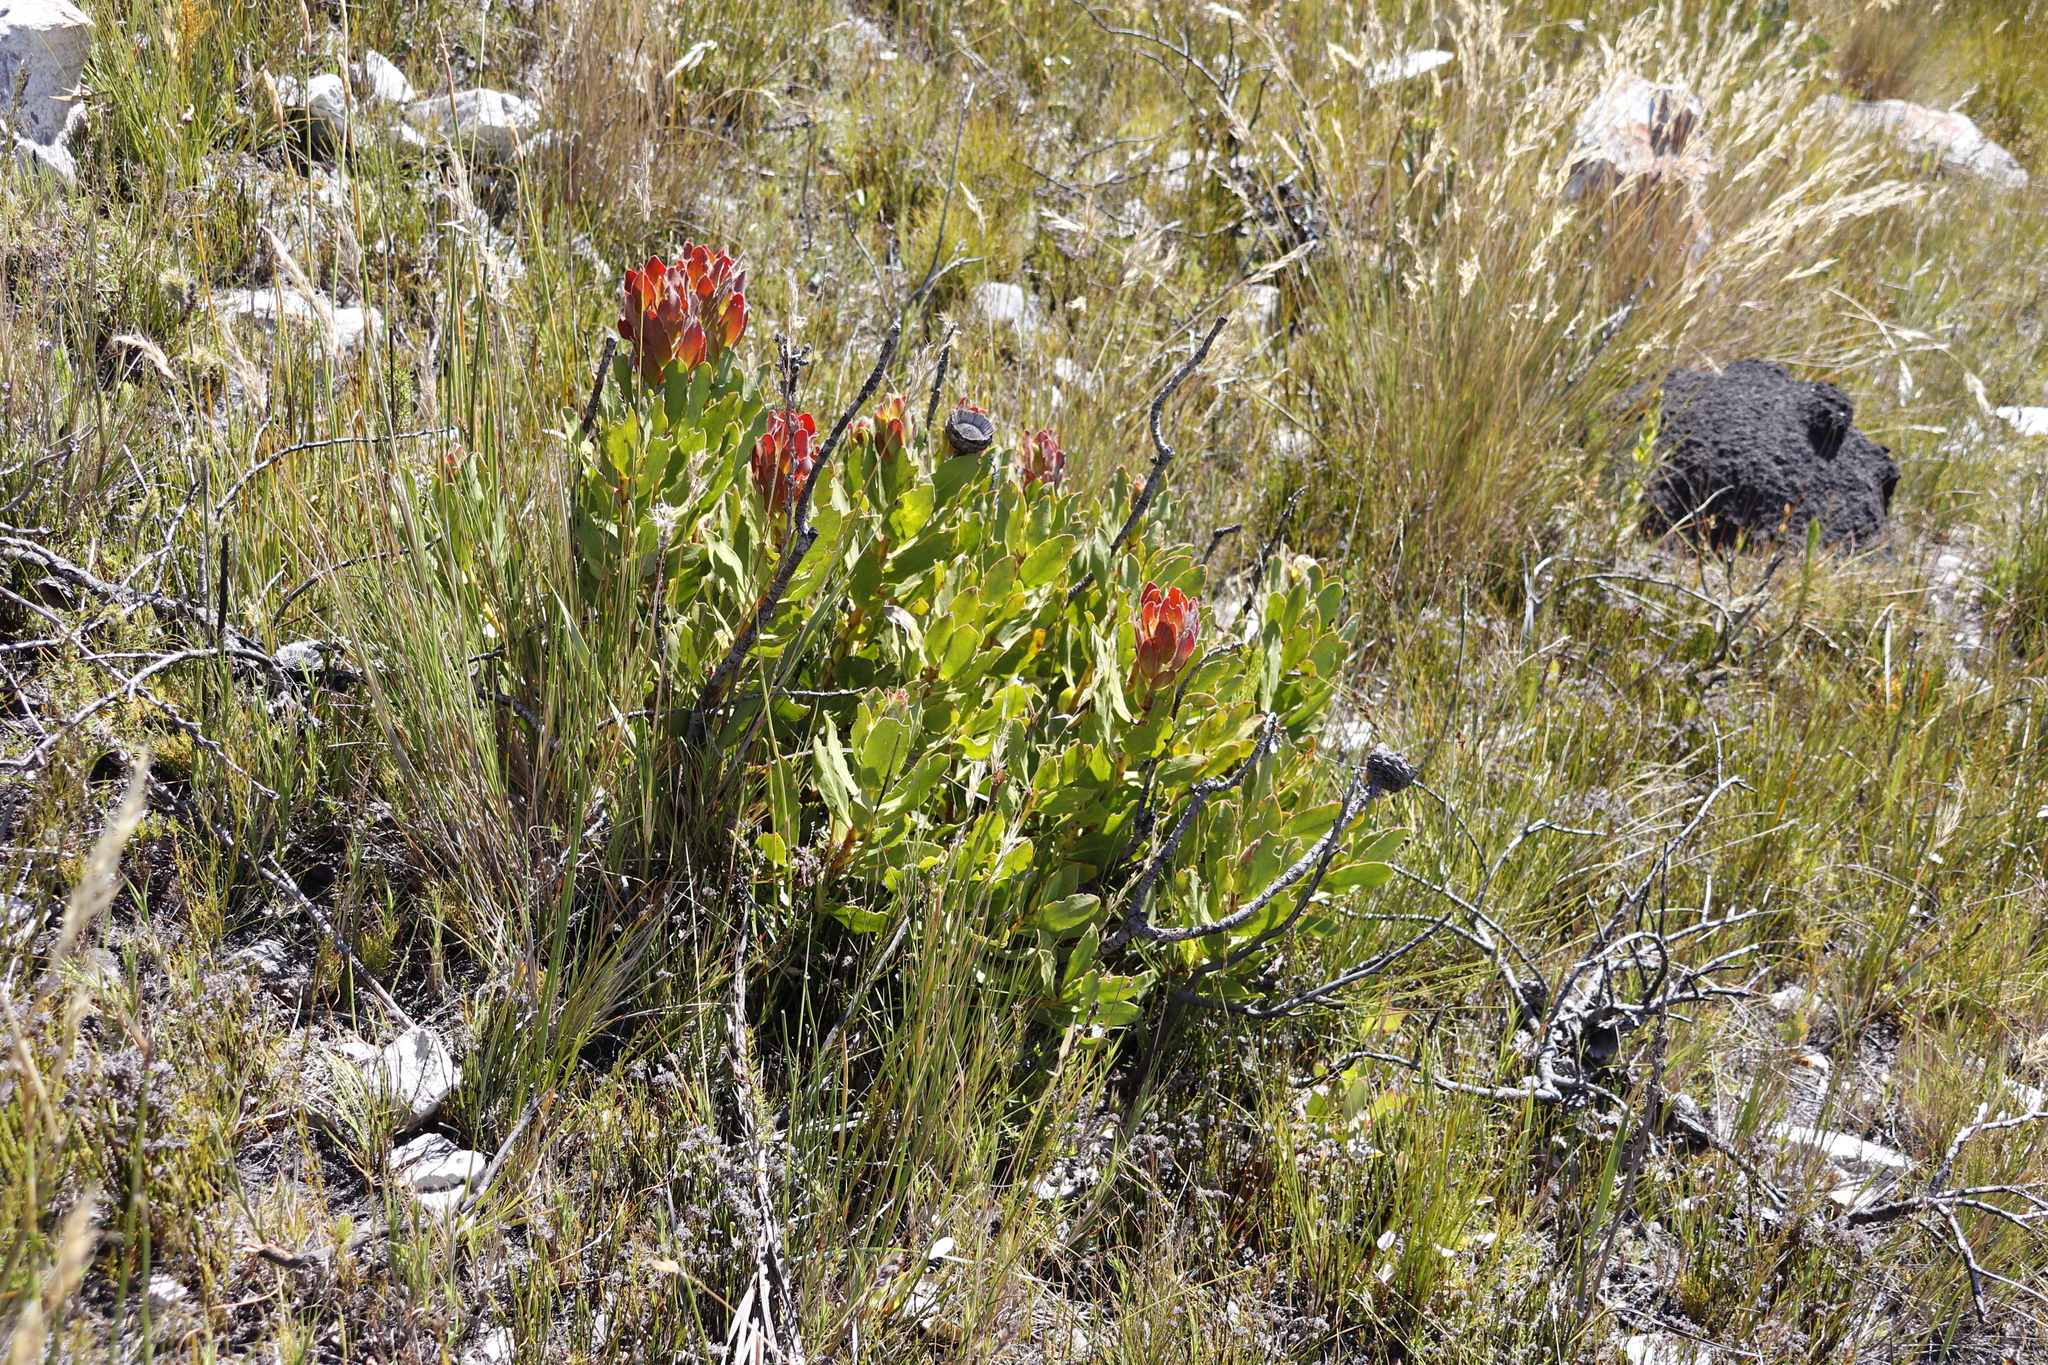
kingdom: Plantae
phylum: Tracheophyta
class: Magnoliopsida
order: Proteales
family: Proteaceae
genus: Protea
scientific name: Protea speciosa
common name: Brown-beard sugarbush
